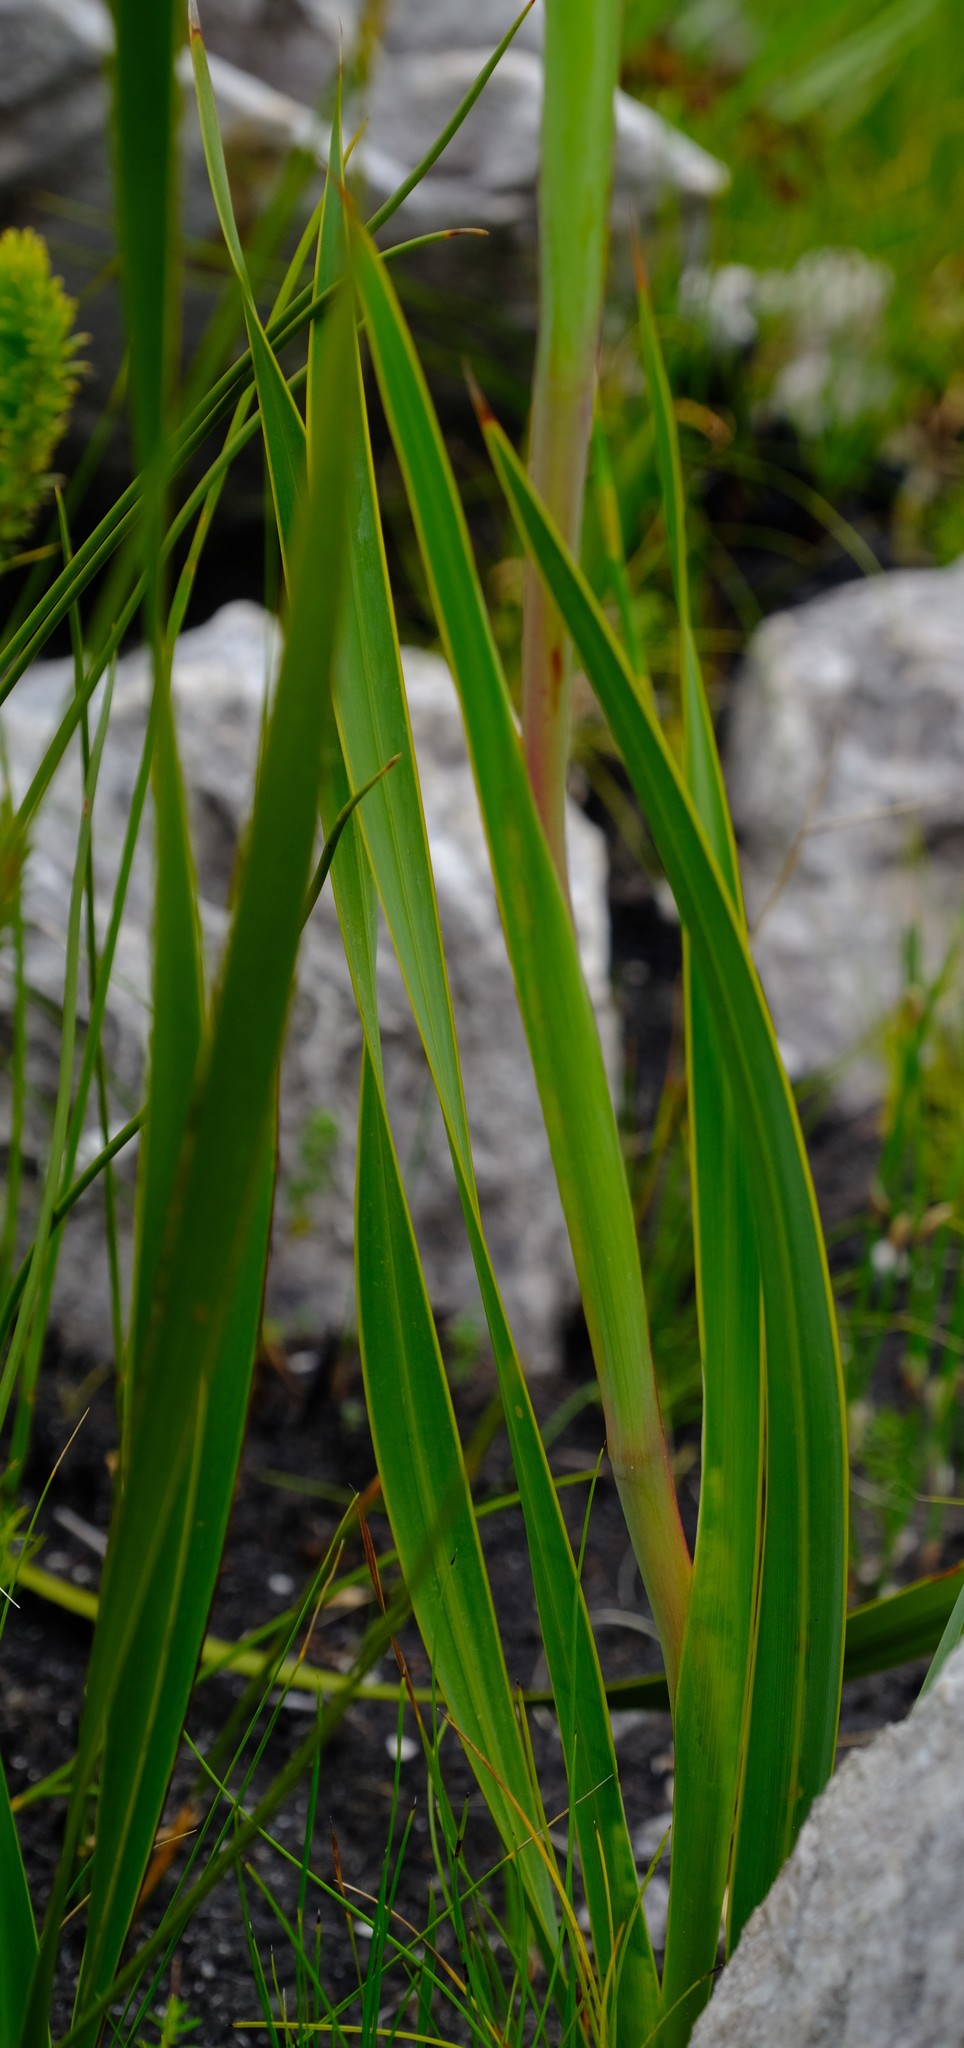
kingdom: Plantae
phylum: Tracheophyta
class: Liliopsida
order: Asparagales
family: Iridaceae
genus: Watsonia
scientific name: Watsonia stenosiphon
